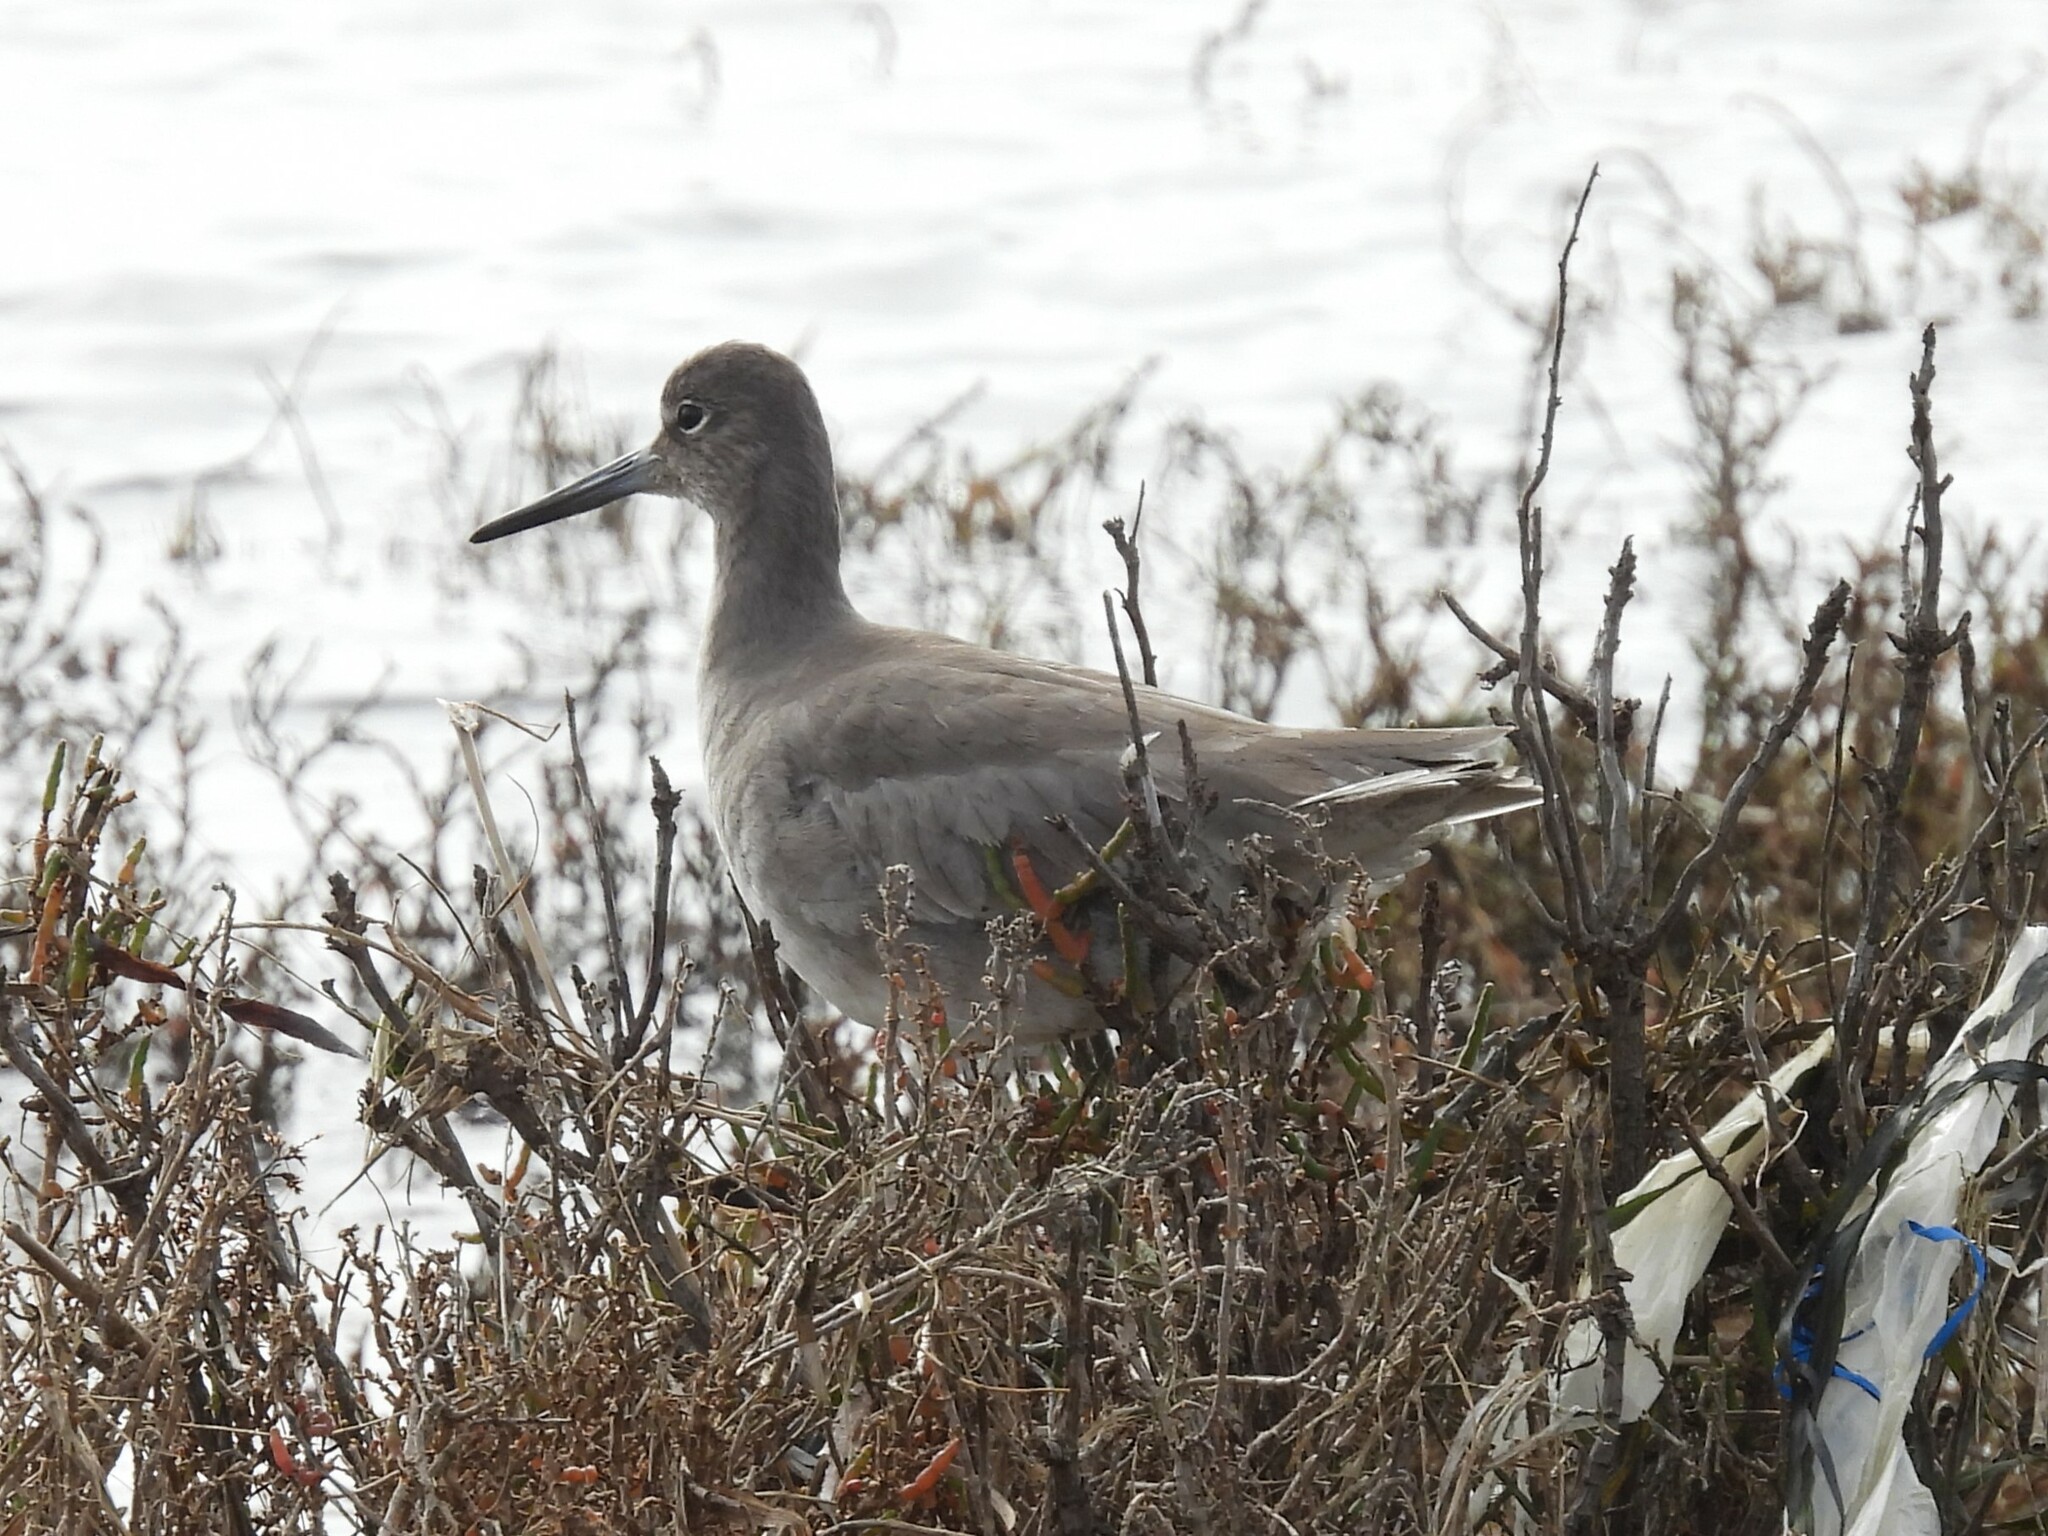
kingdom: Animalia
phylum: Chordata
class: Aves
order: Charadriiformes
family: Scolopacidae
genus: Tringa
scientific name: Tringa semipalmata
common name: Willet
